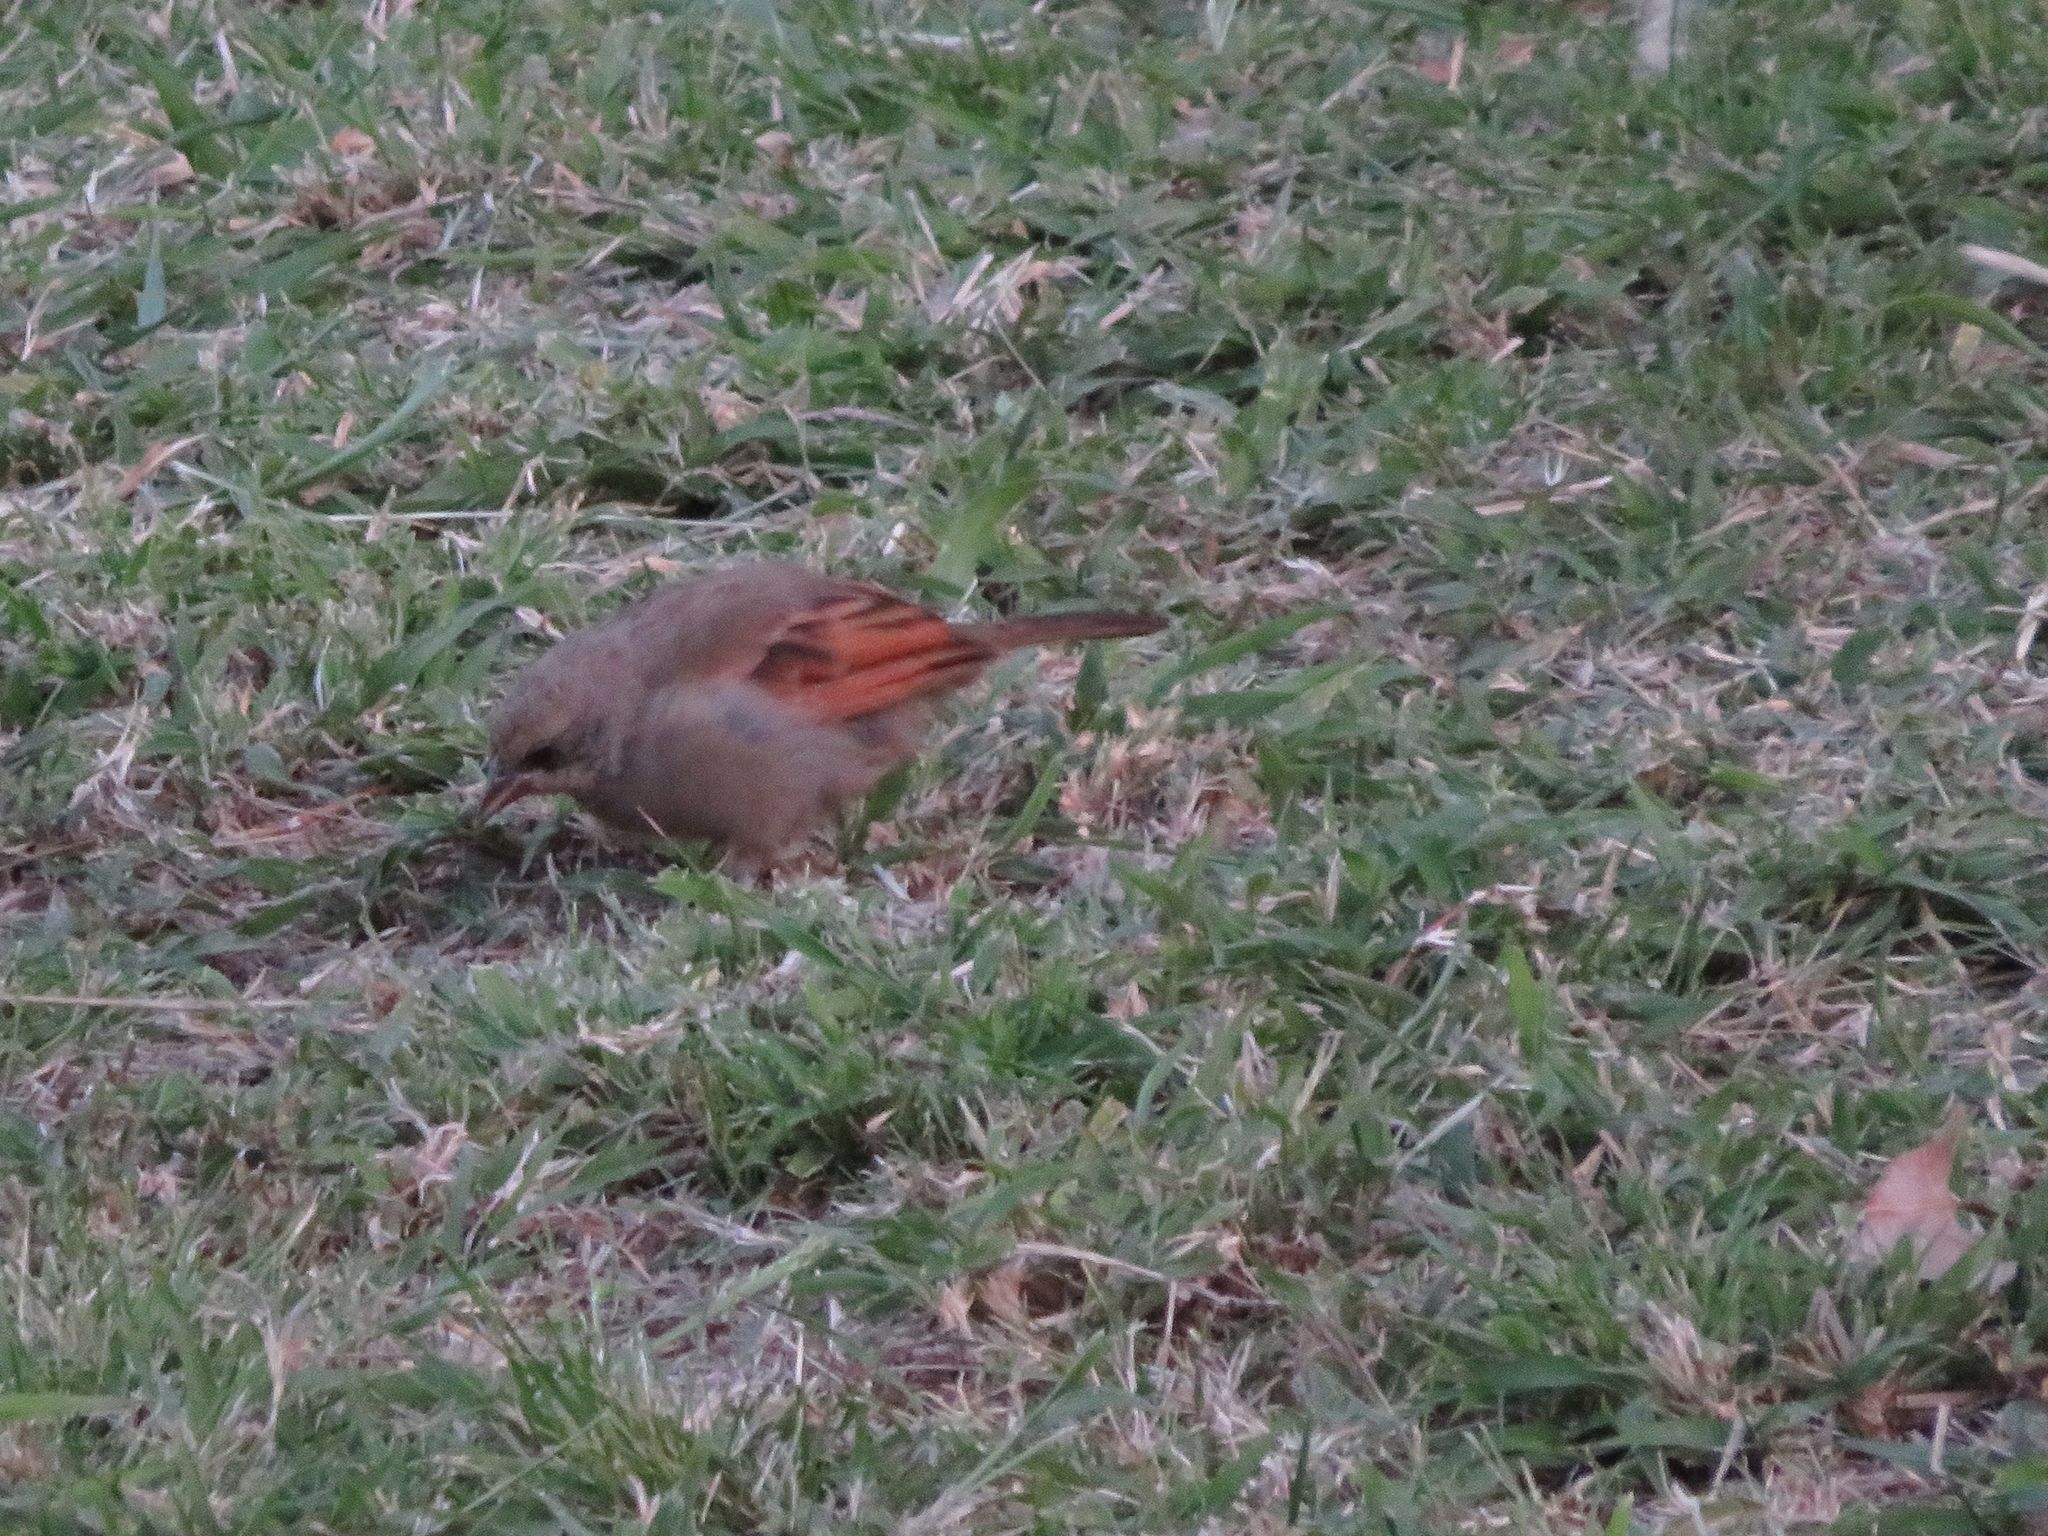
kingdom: Animalia
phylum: Chordata
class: Aves
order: Passeriformes
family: Icteridae
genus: Agelaioides
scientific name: Agelaioides badius
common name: Baywing
